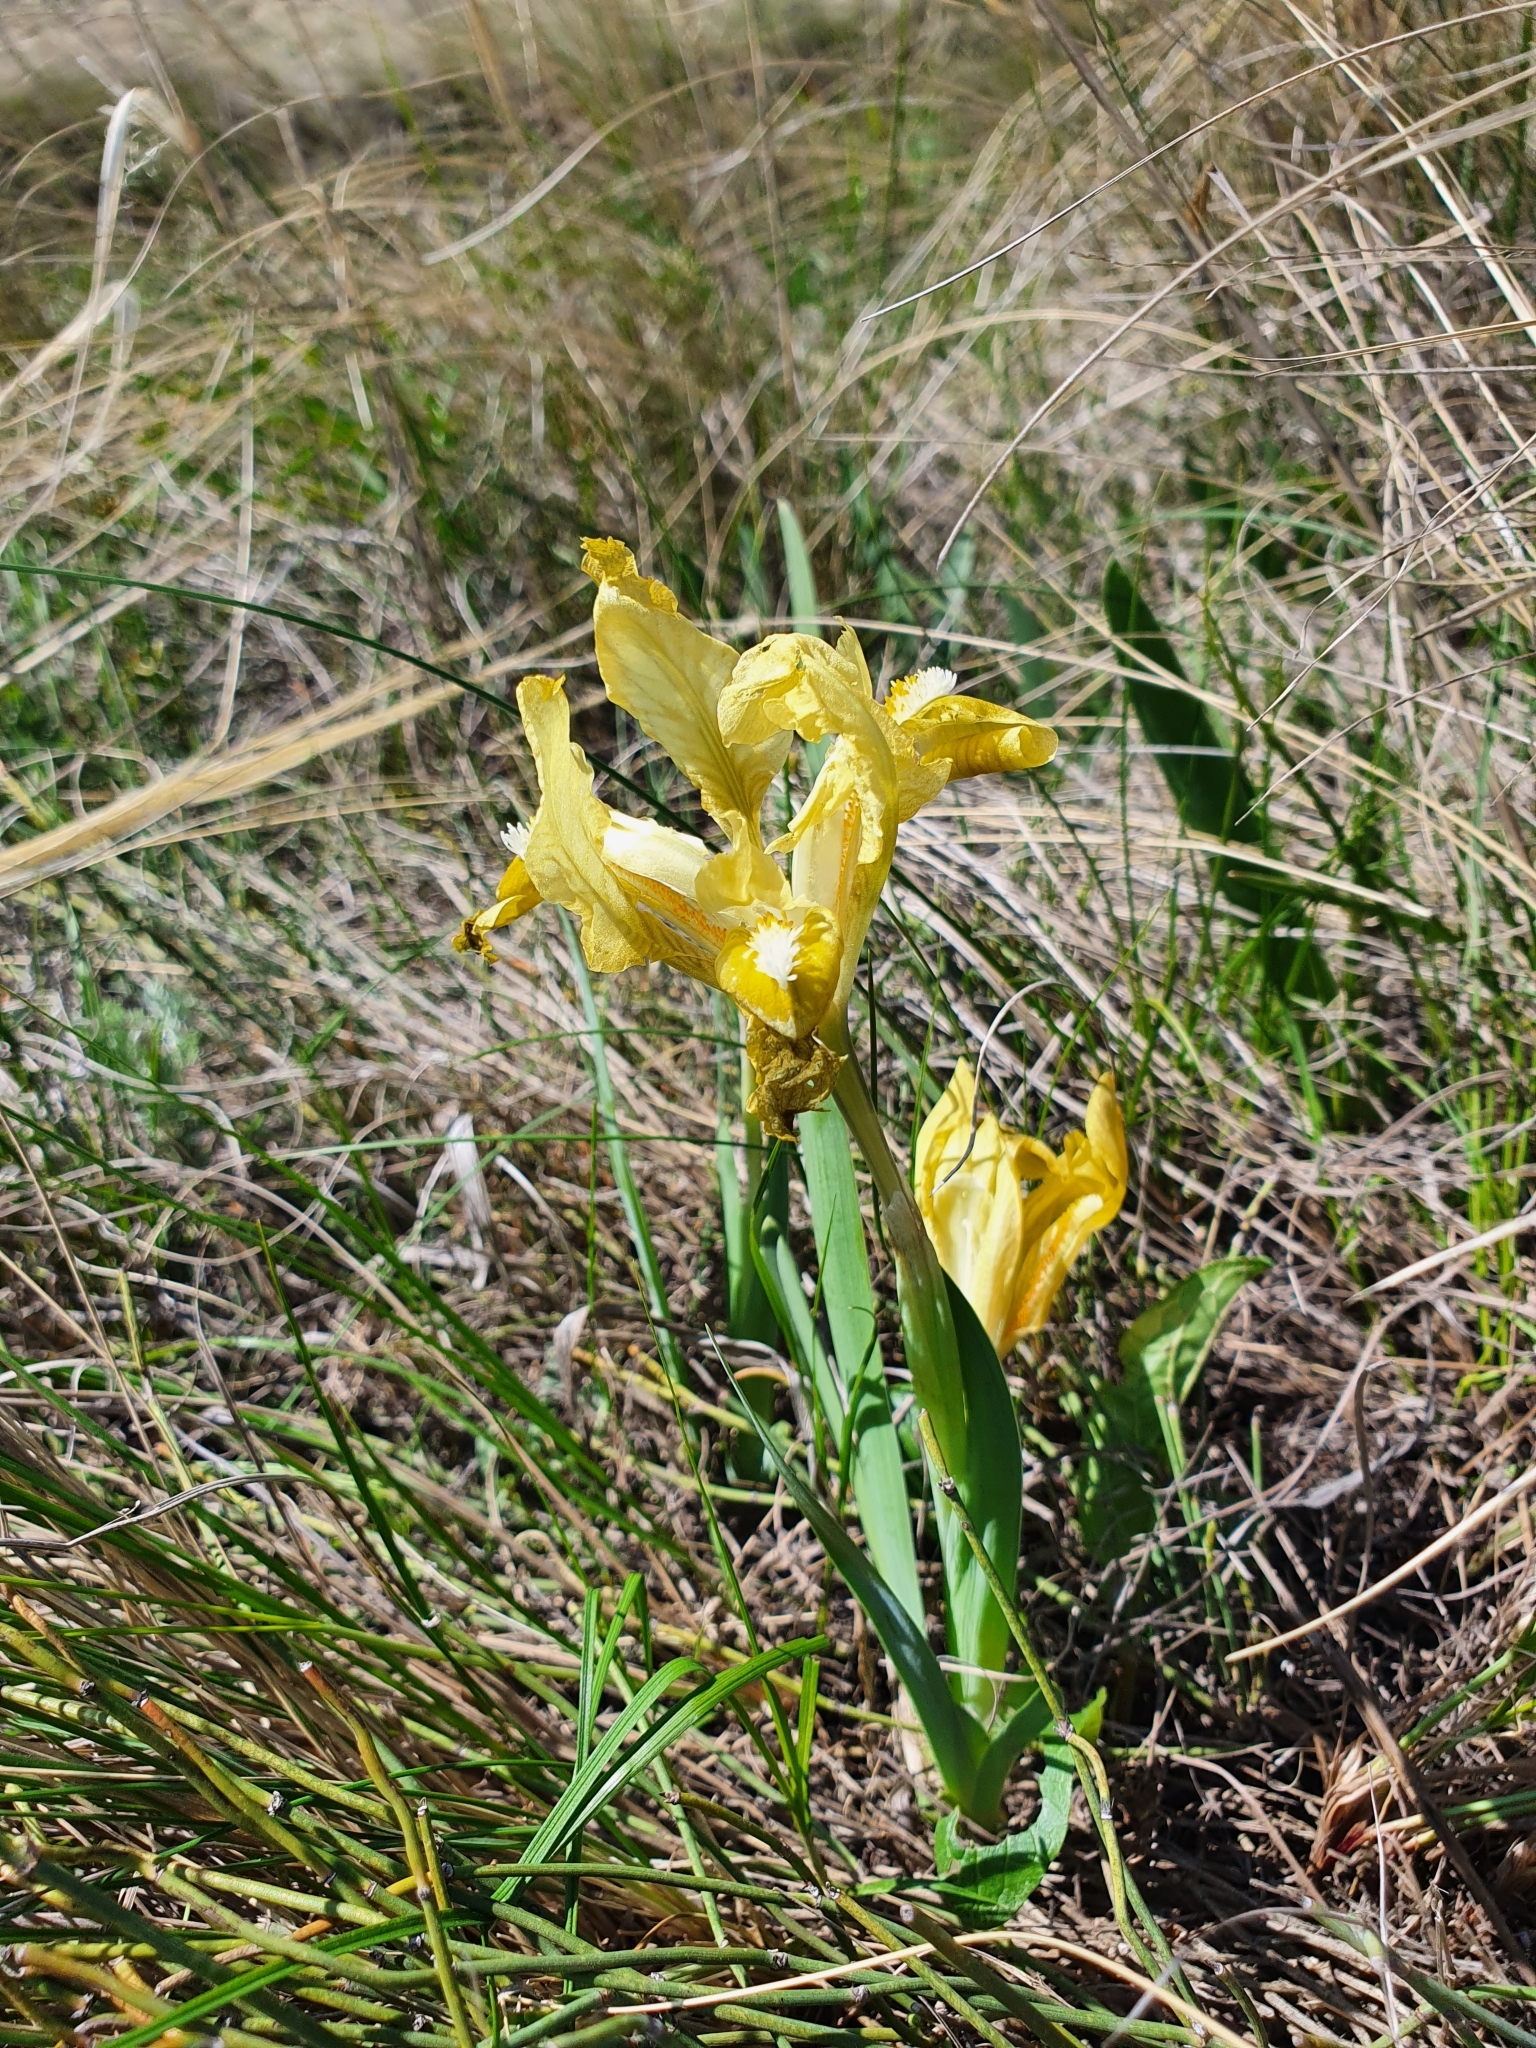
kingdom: Plantae
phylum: Tracheophyta
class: Liliopsida
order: Asparagales
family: Iridaceae
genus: Iris
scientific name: Iris pumila
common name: Dwarf iris
